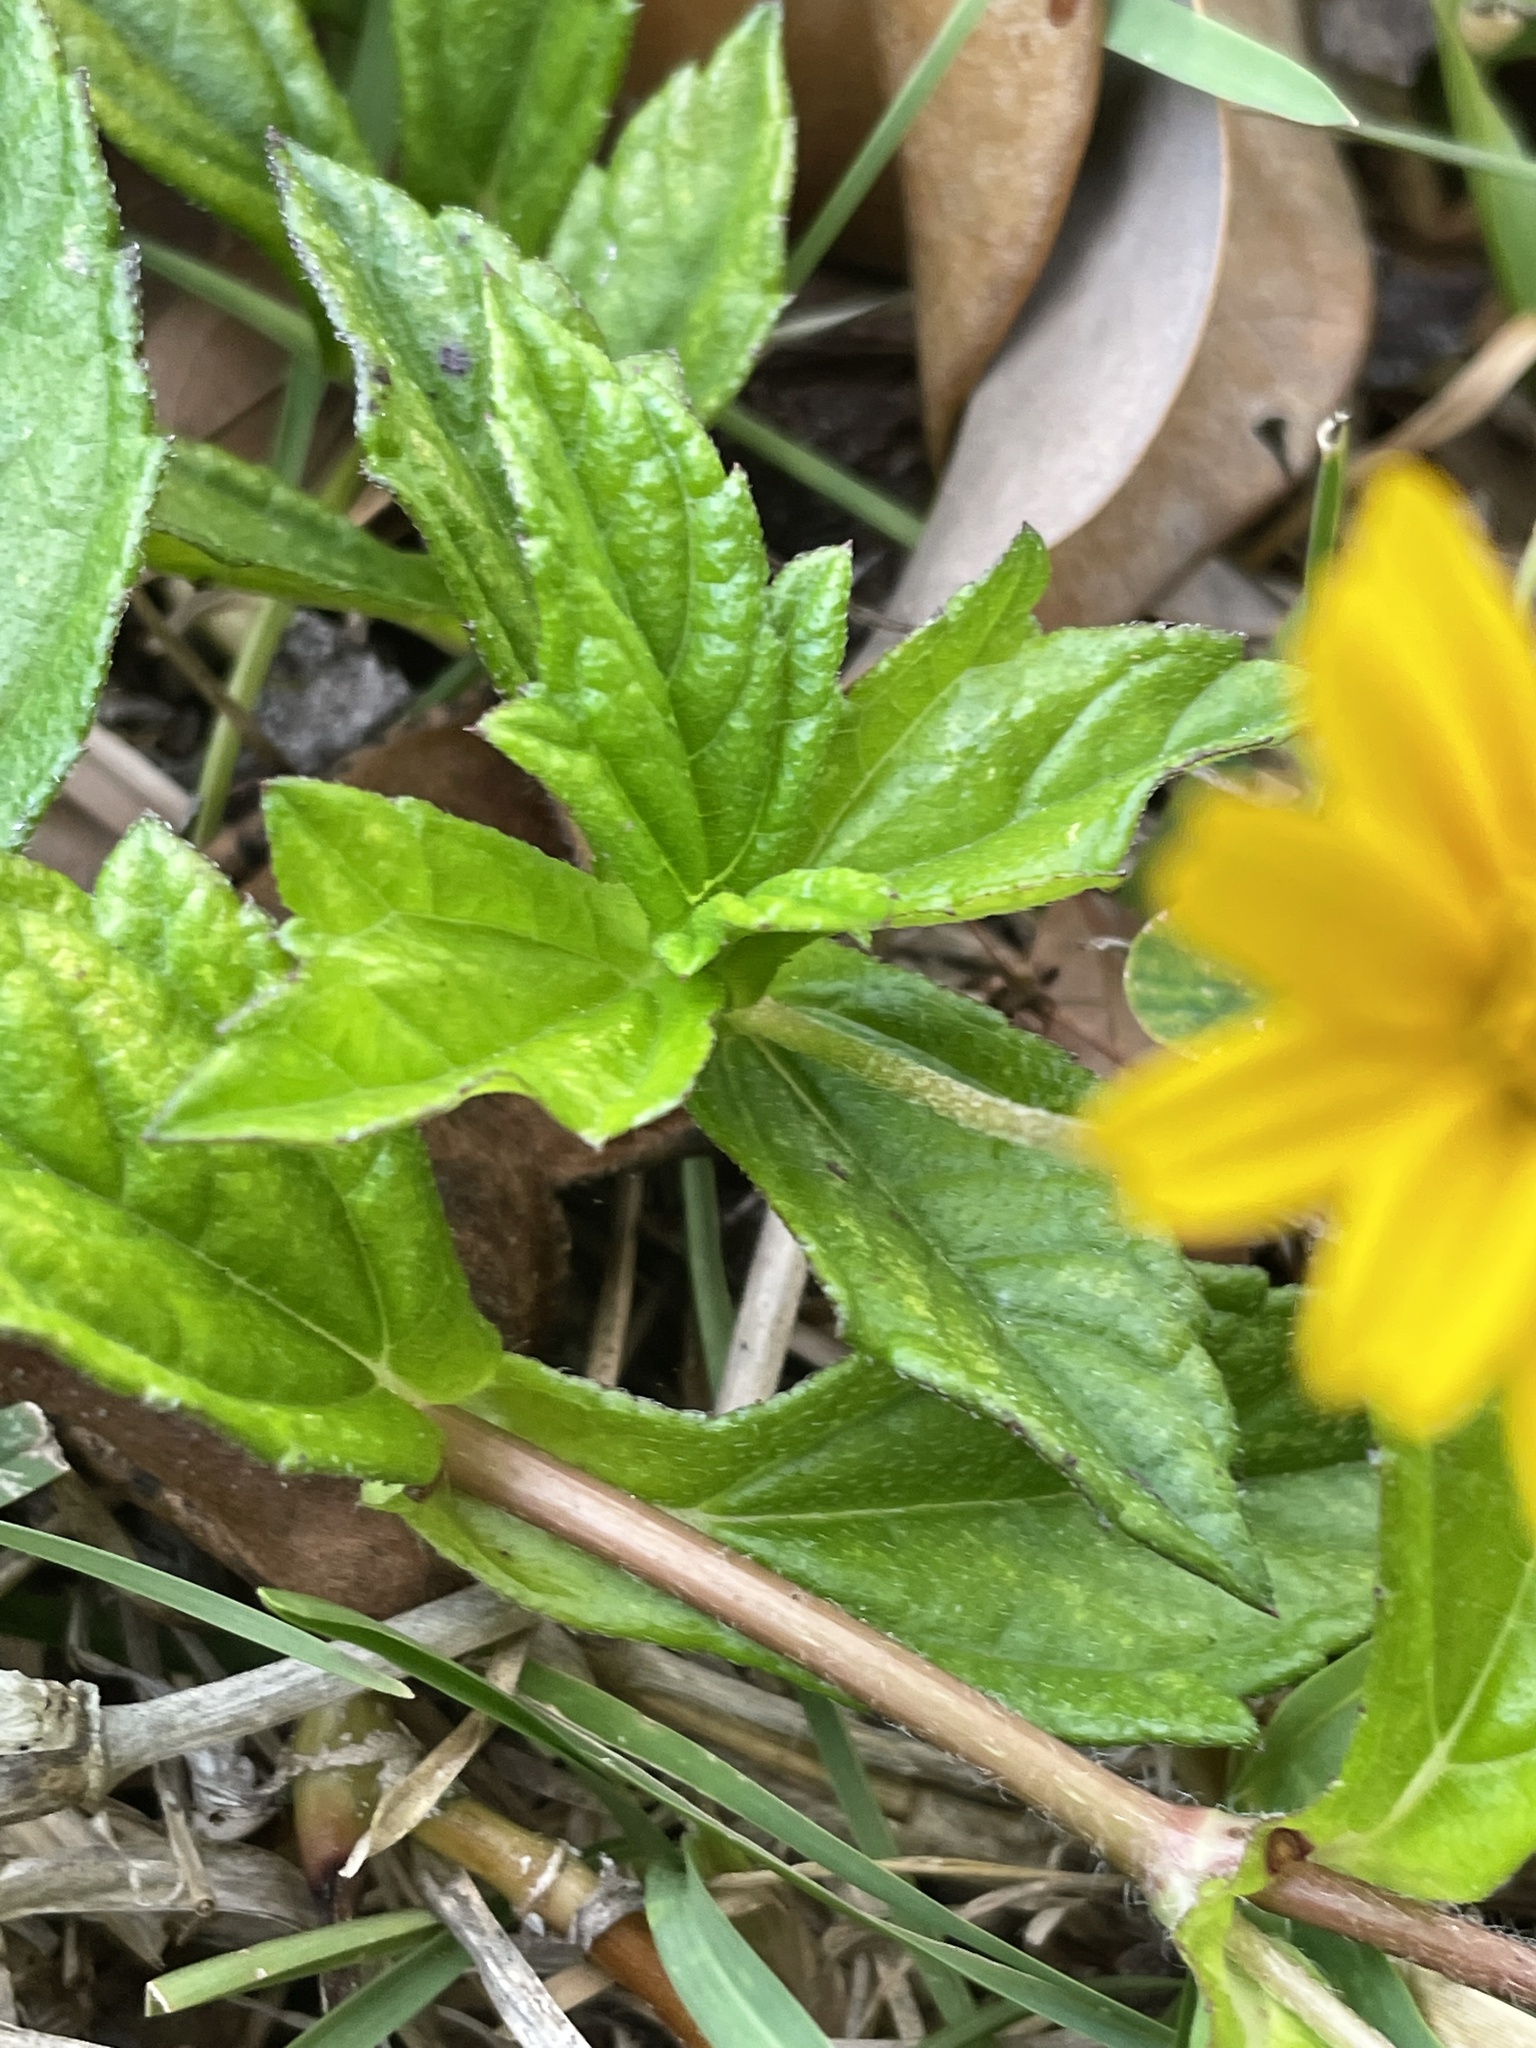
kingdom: Plantae
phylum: Tracheophyta
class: Magnoliopsida
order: Asterales
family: Asteraceae
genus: Sphagneticola
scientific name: Sphagneticola trilobata
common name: Bay biscayne creeping-oxeye
